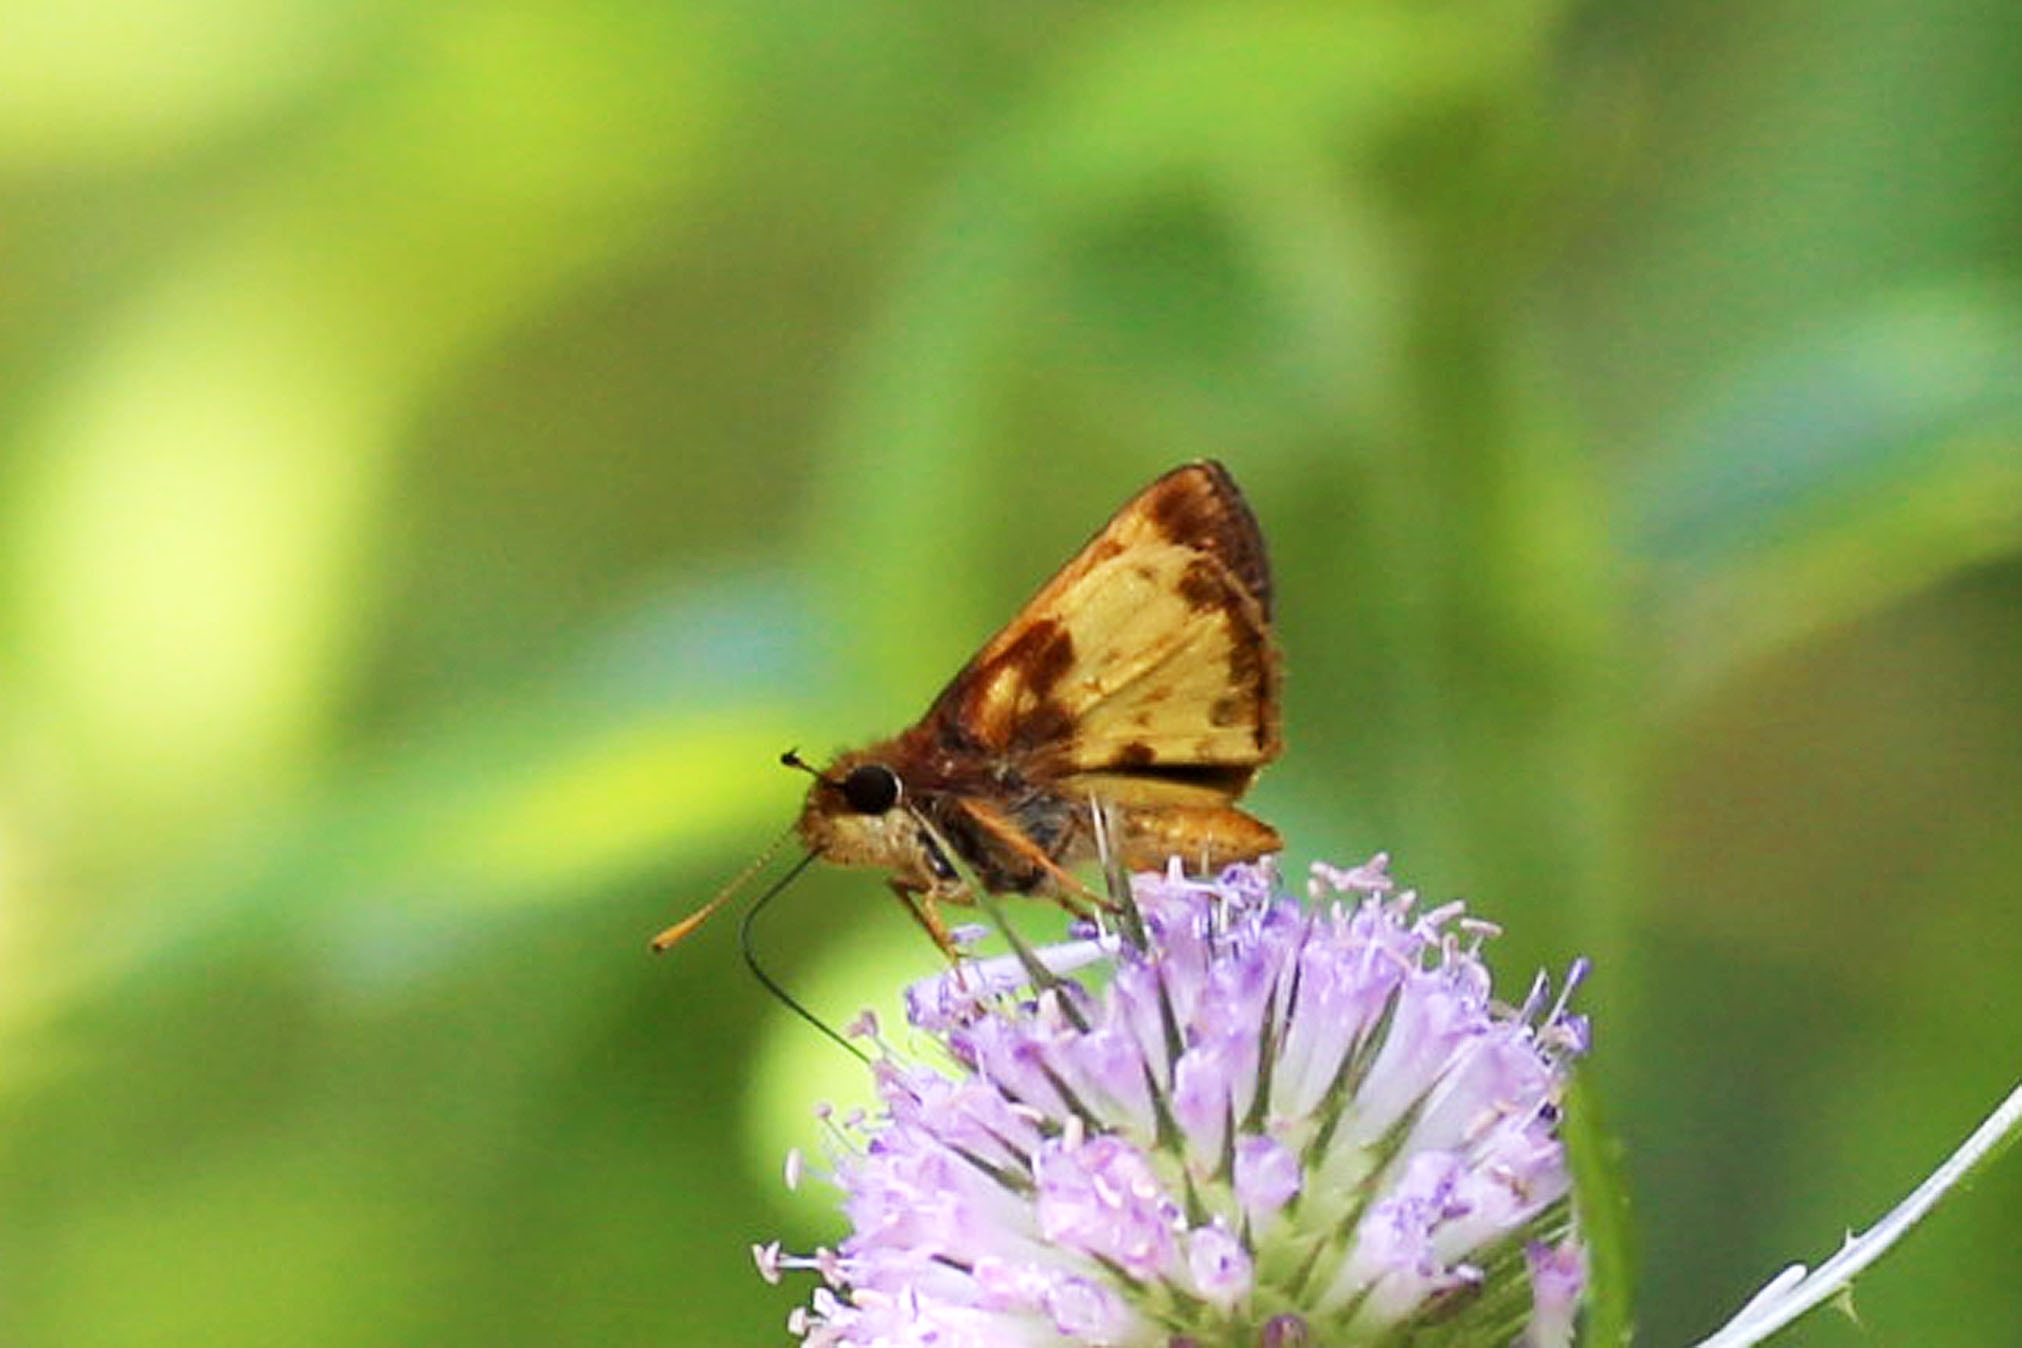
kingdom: Animalia
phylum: Arthropoda
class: Insecta
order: Lepidoptera
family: Hesperiidae
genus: Lon
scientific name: Lon zabulon
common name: Zabulon skipper
